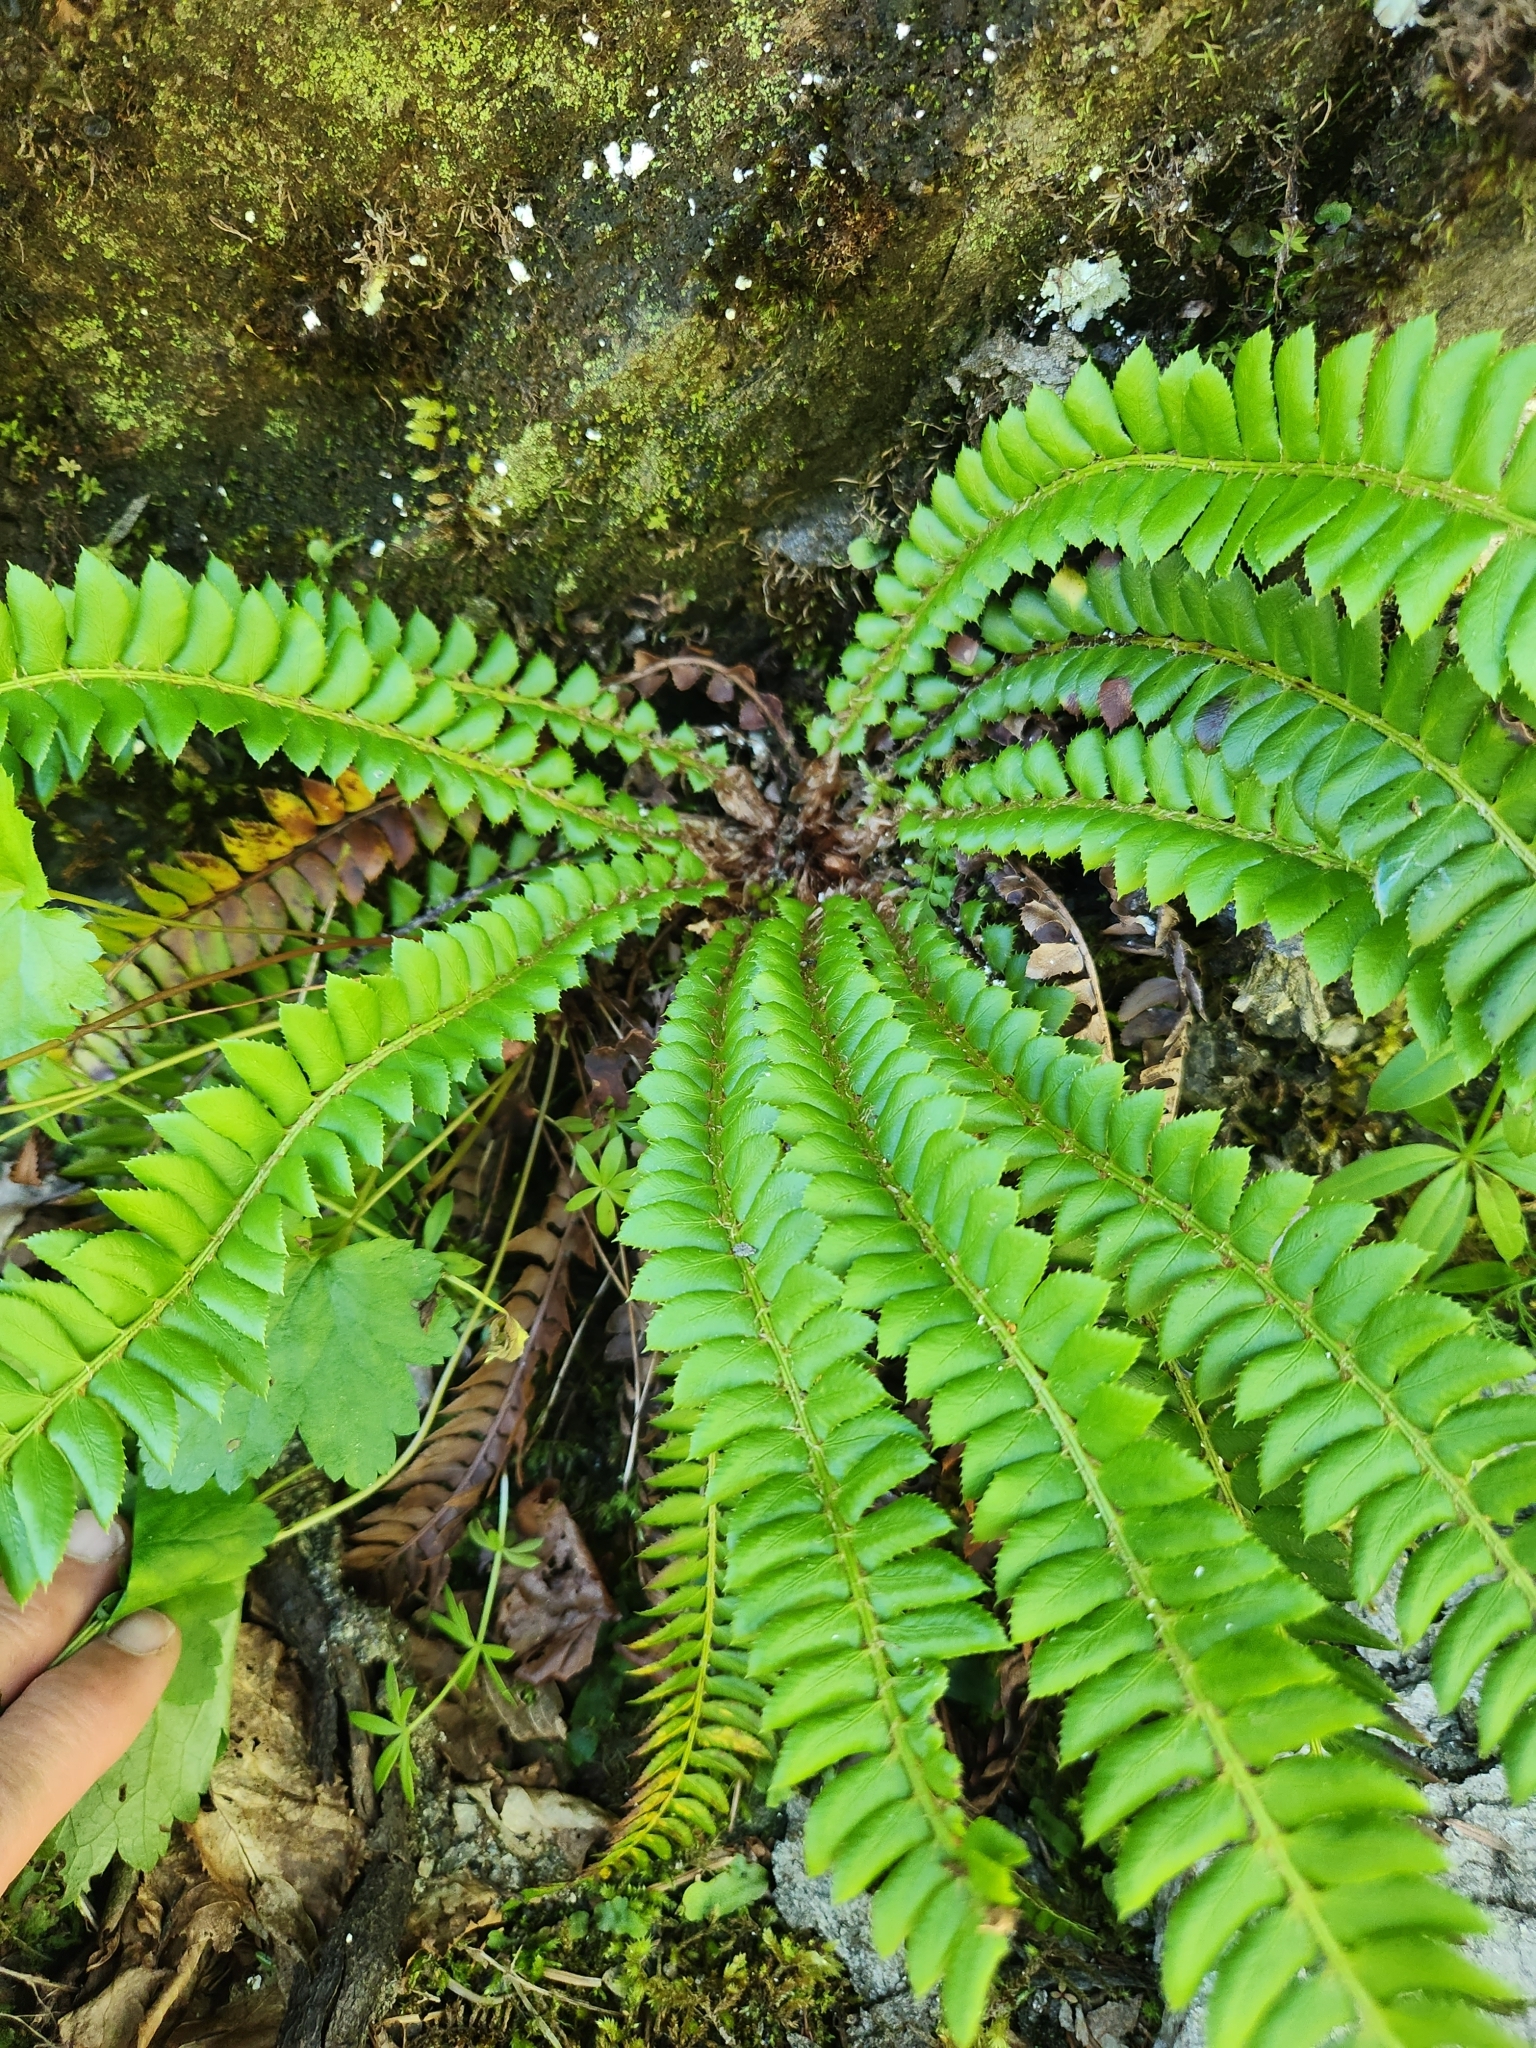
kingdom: Plantae
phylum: Tracheophyta
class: Polypodiopsida
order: Polypodiales
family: Dryopteridaceae
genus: Polystichum
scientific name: Polystichum lonchitis
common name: Holly fern
